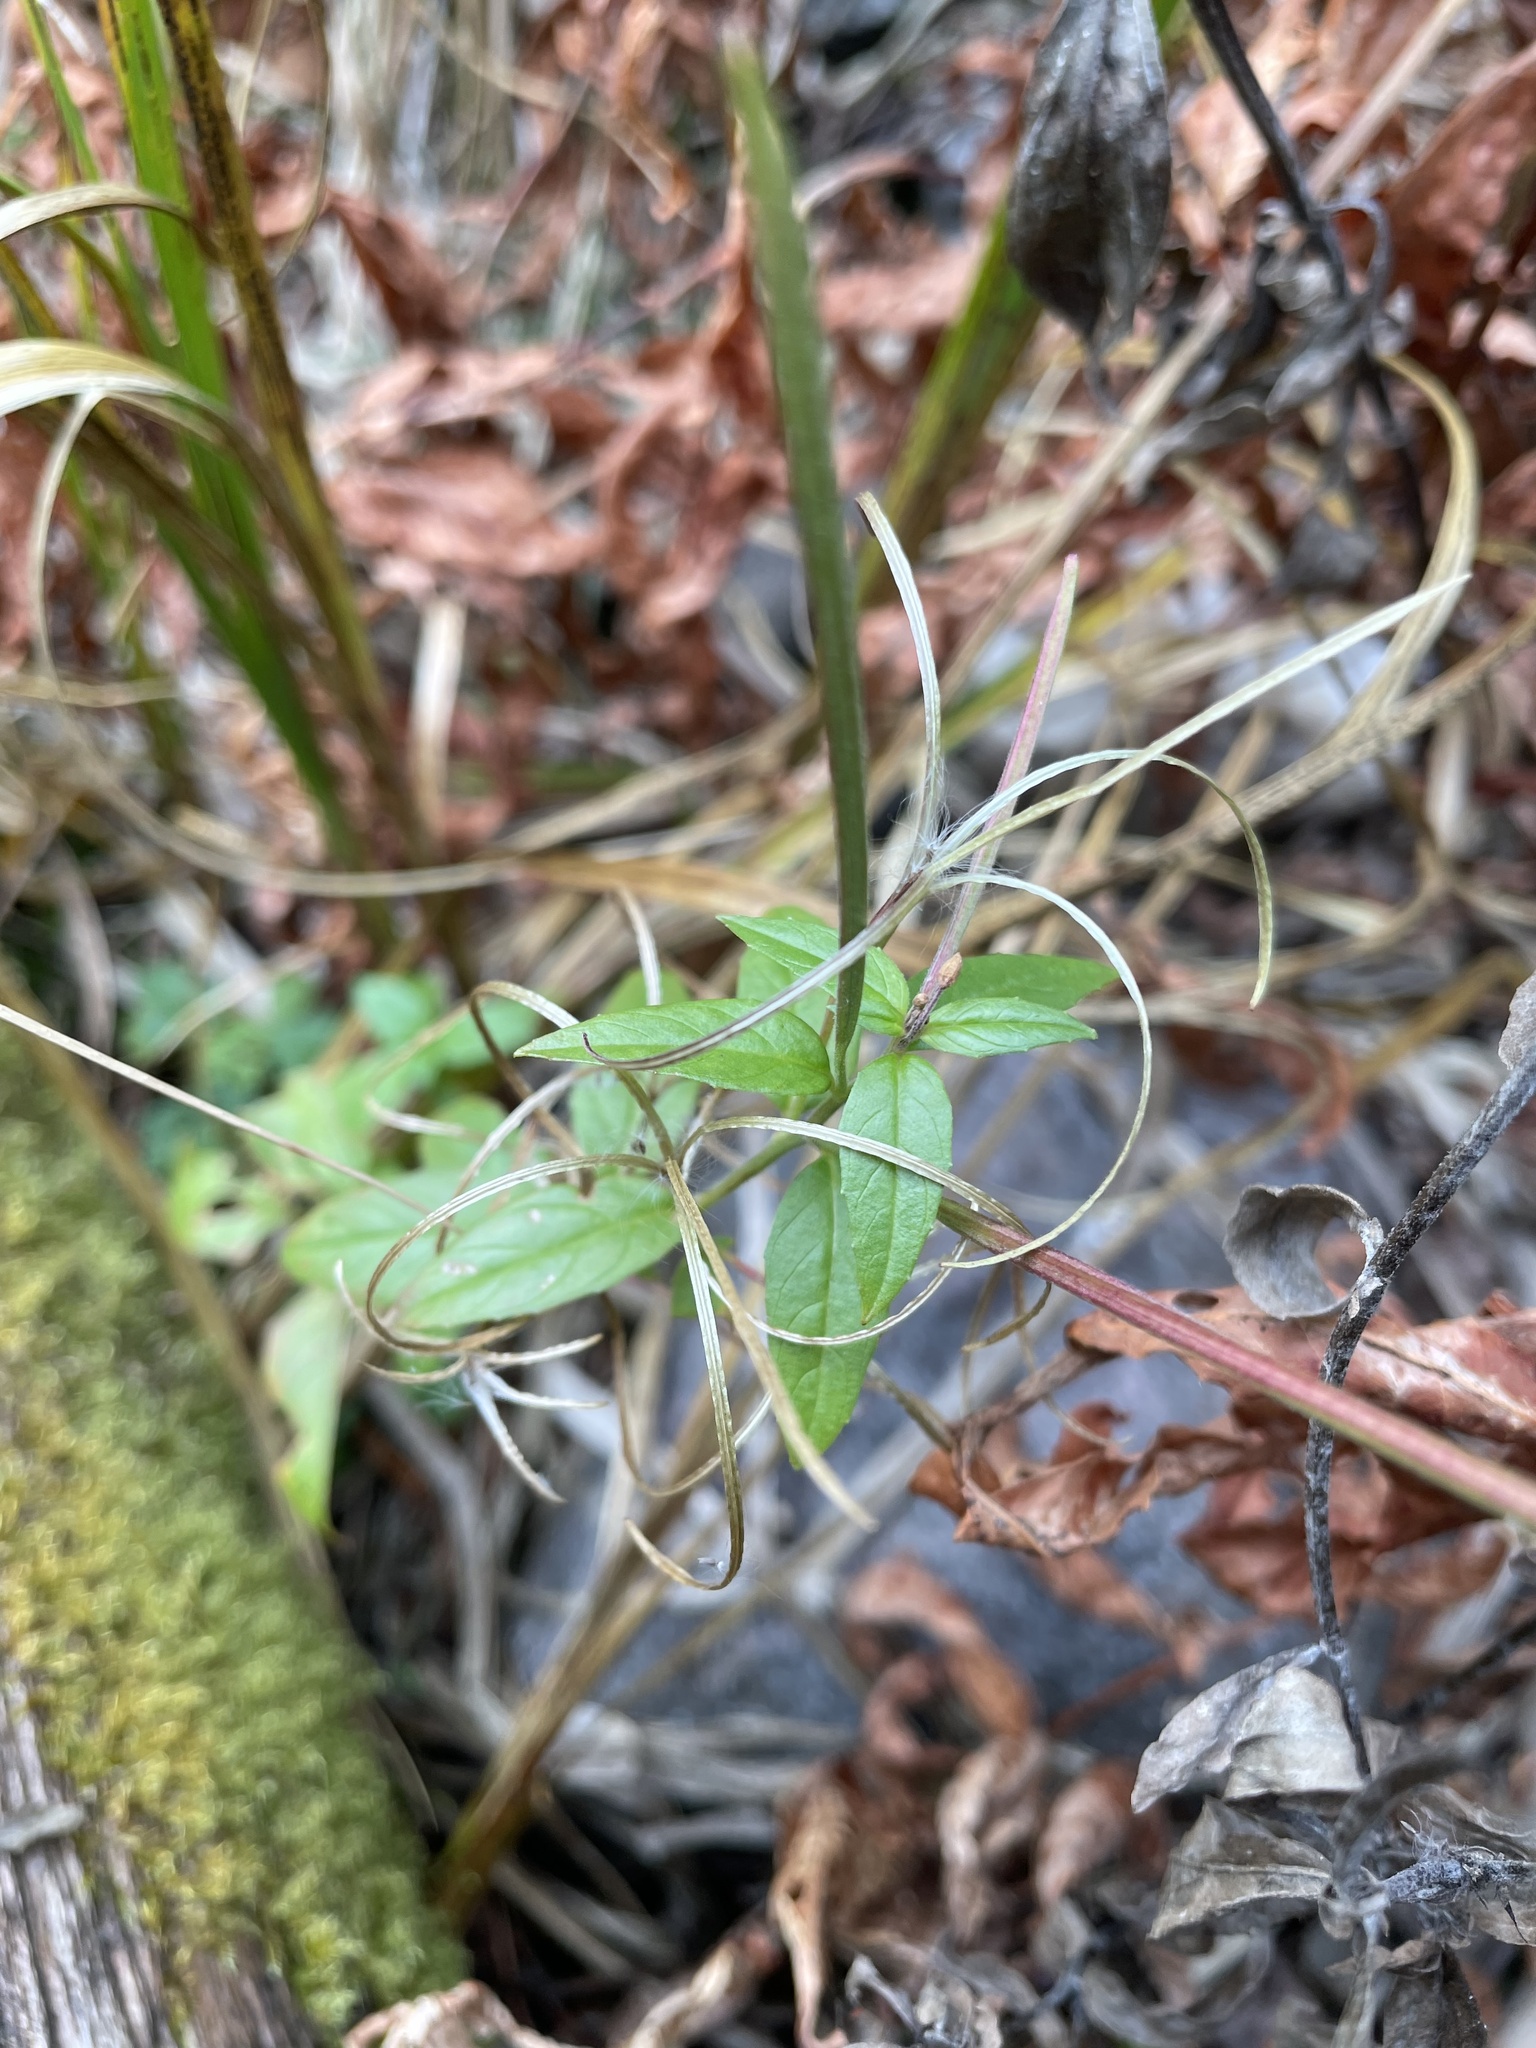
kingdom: Plantae
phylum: Tracheophyta
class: Magnoliopsida
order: Myrtales
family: Onagraceae
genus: Epilobium
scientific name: Epilobium ciliatum
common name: American willowherb
